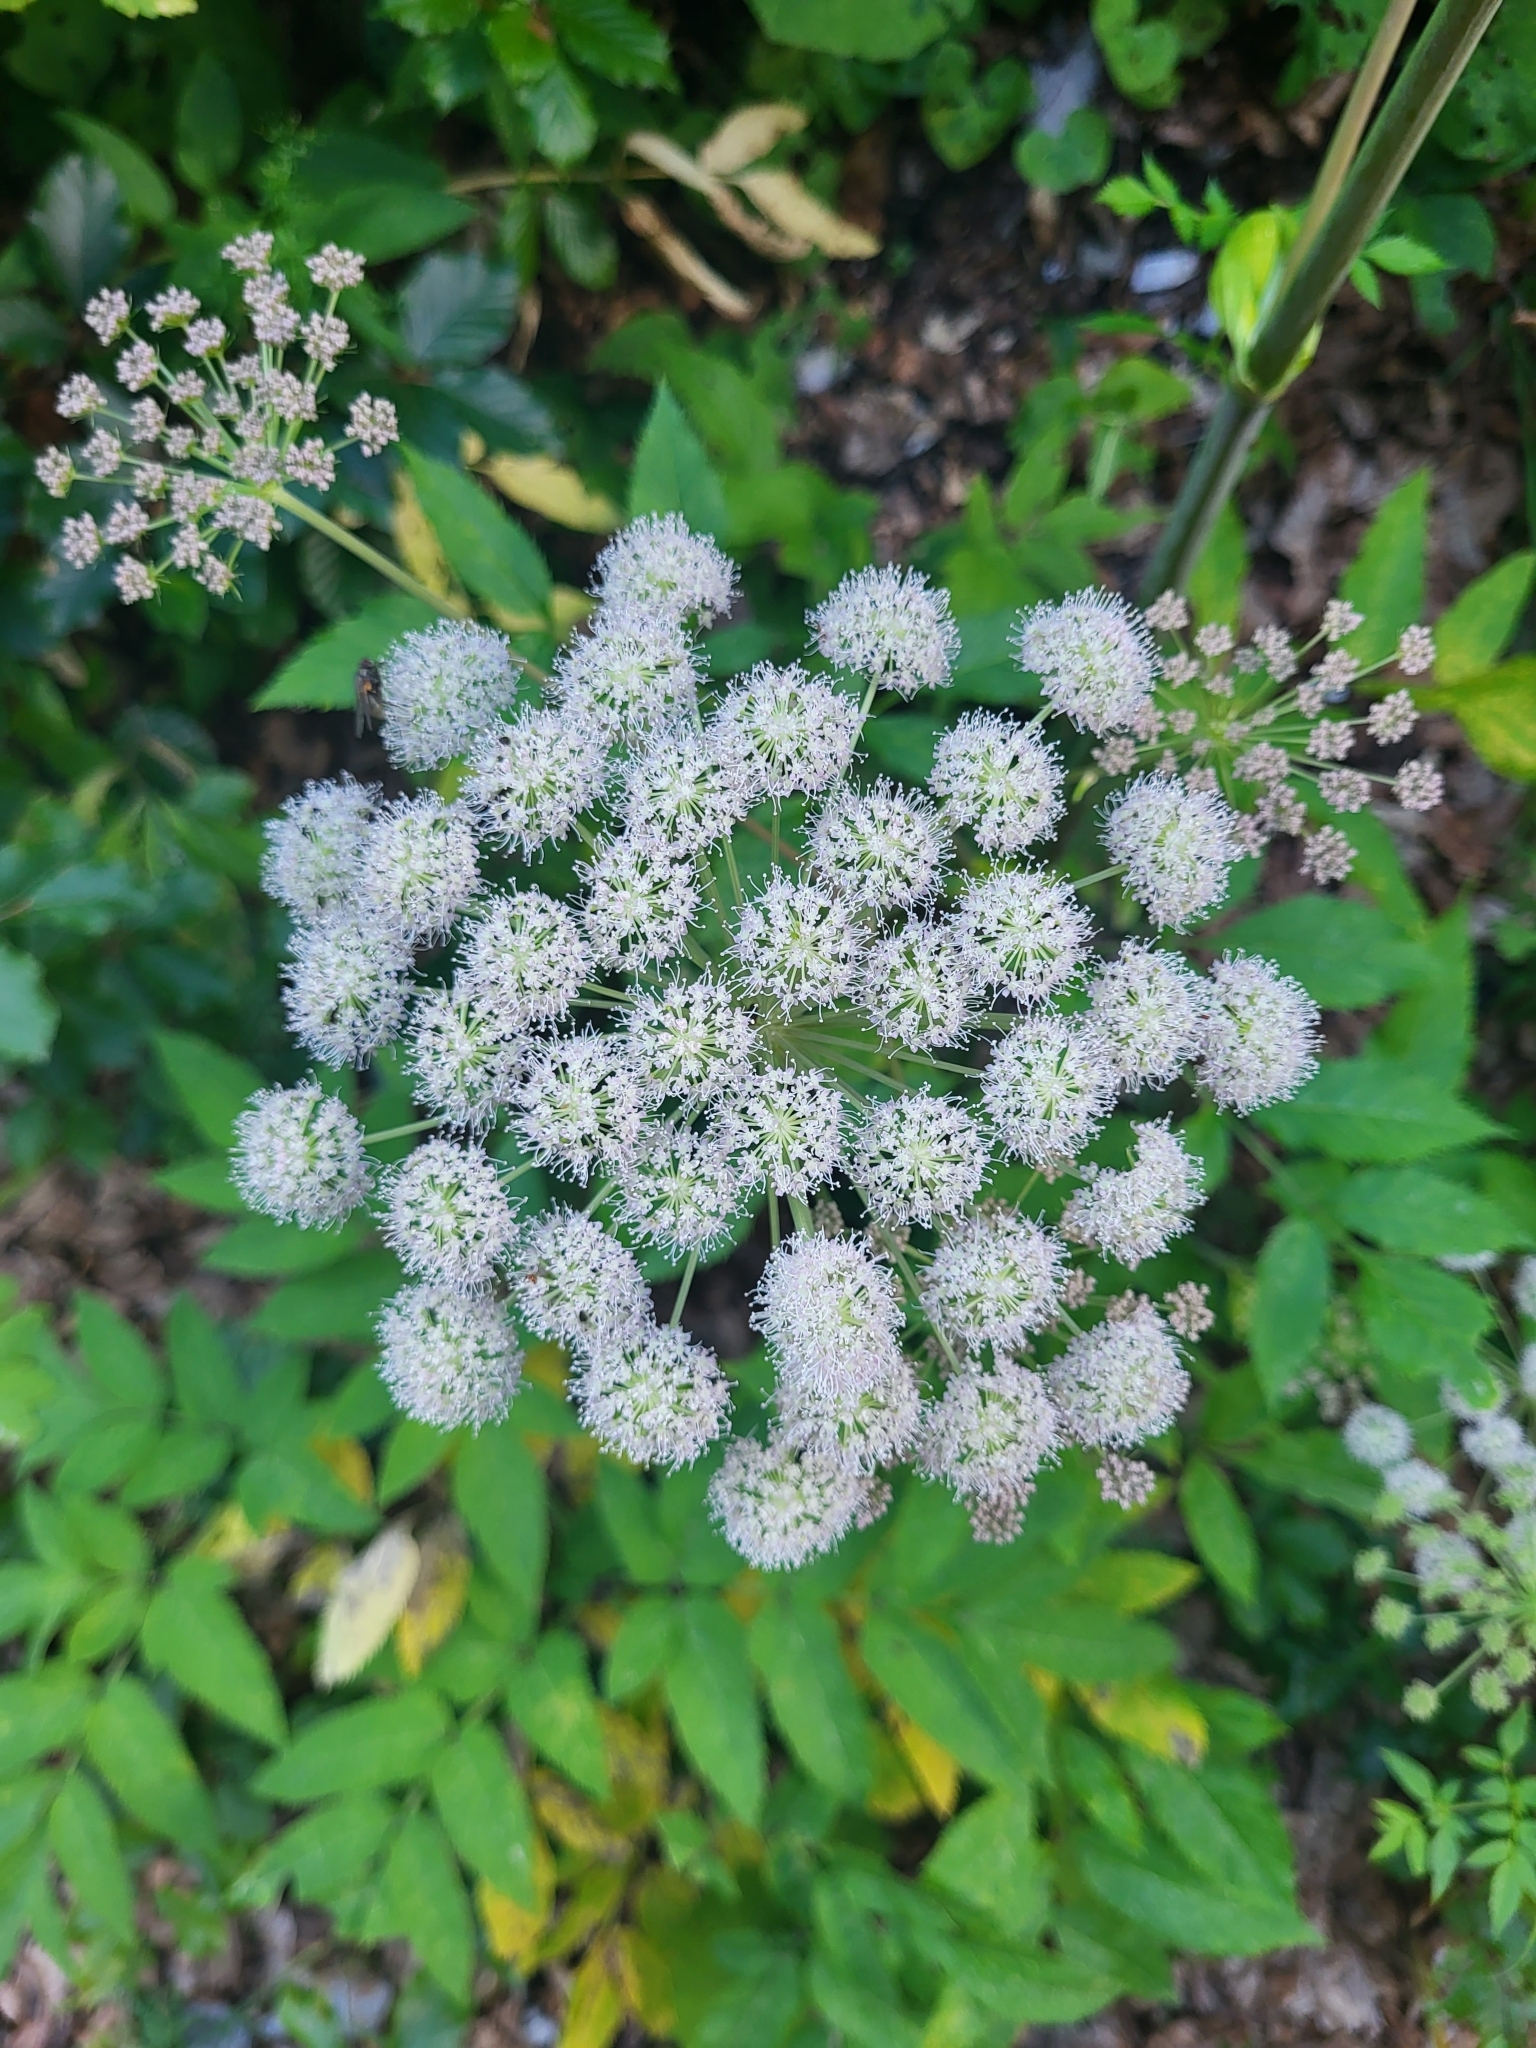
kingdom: Plantae
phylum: Tracheophyta
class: Magnoliopsida
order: Apiales
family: Apiaceae
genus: Angelica
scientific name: Angelica sylvestris
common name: Wild angelica
